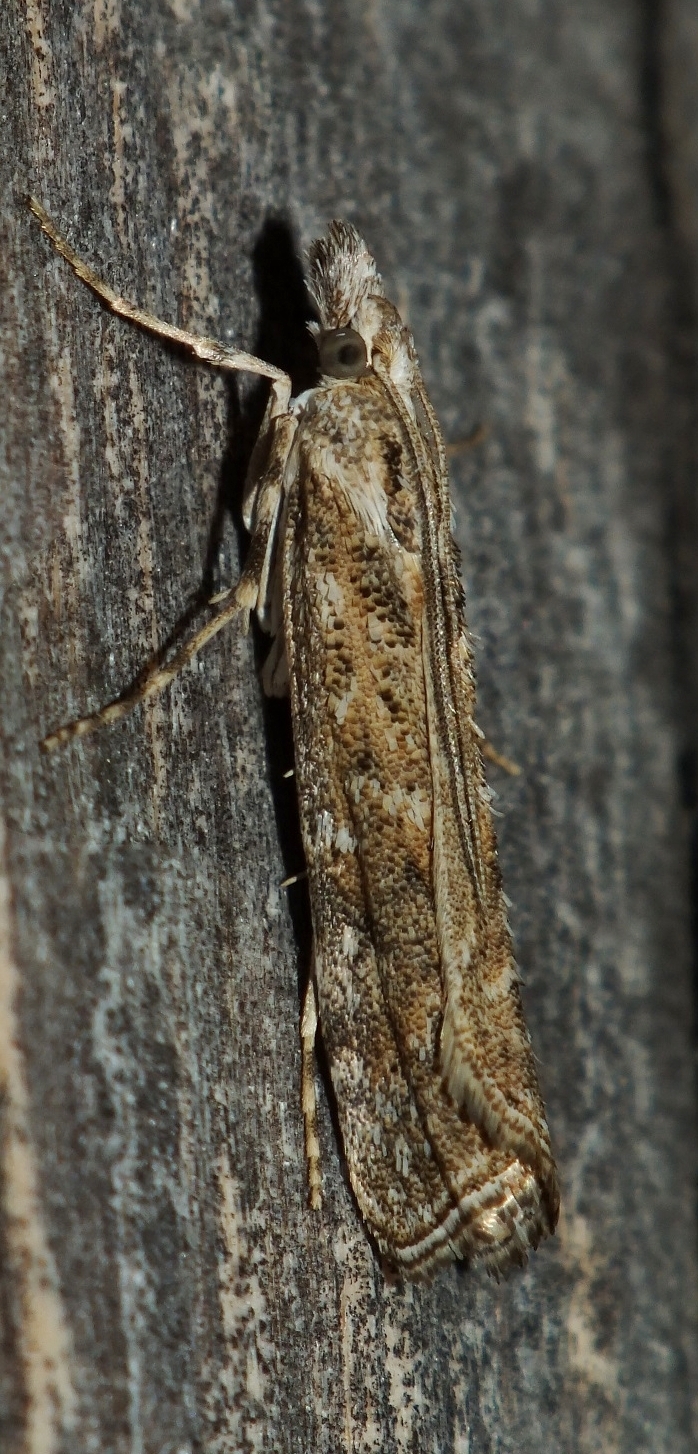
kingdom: Animalia
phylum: Arthropoda
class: Insecta
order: Lepidoptera
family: Crambidae
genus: Talis
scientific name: Talis quercella
